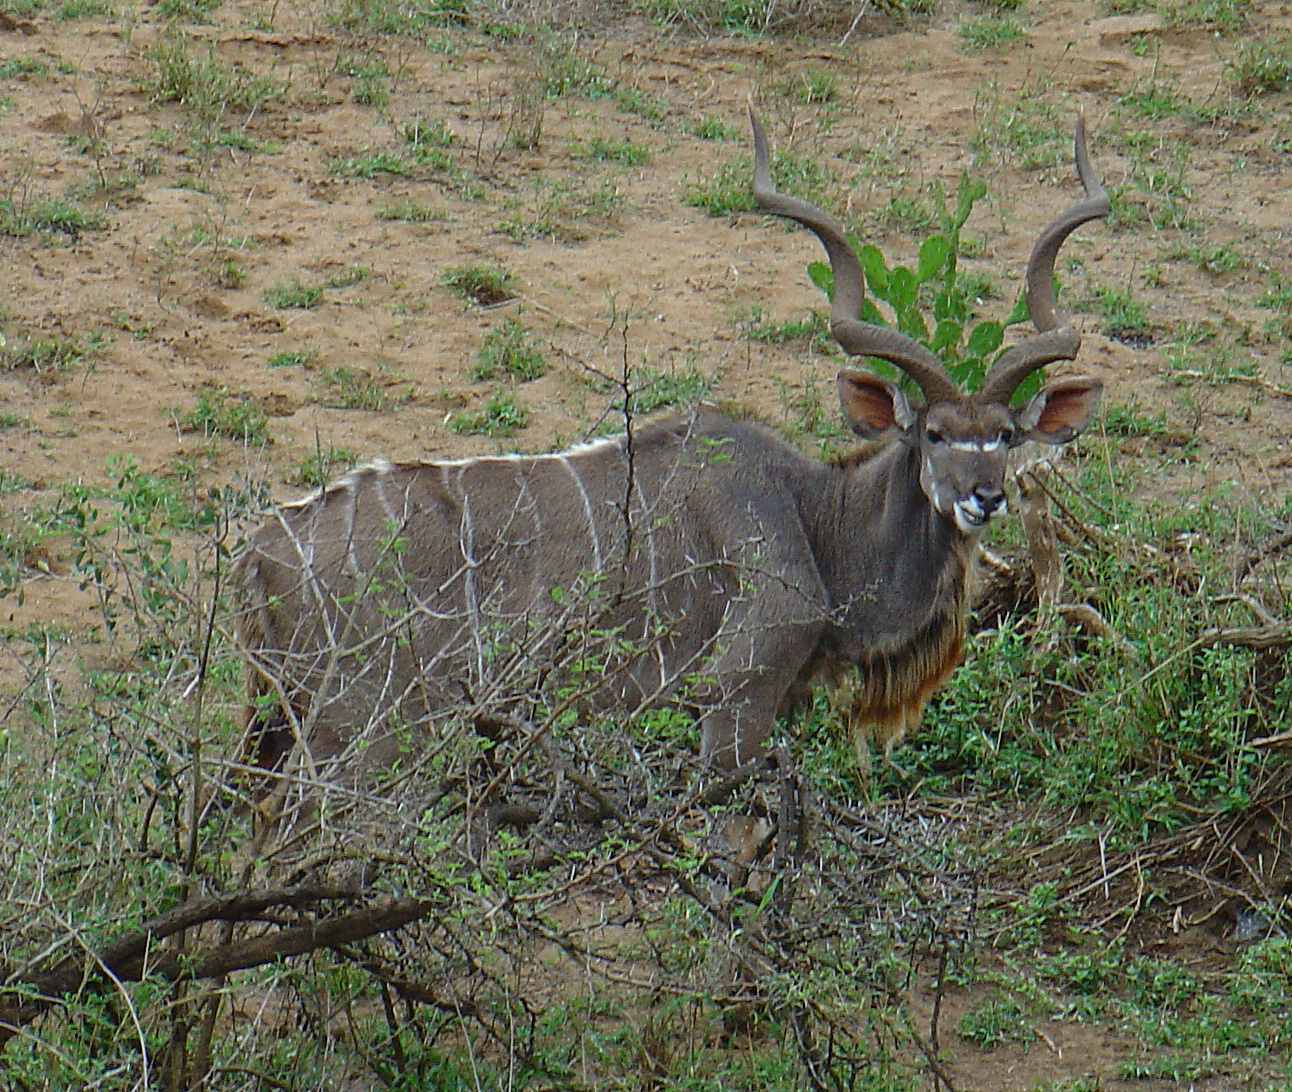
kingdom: Animalia
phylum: Chordata
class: Mammalia
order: Artiodactyla
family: Bovidae
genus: Tragelaphus
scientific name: Tragelaphus strepsiceros
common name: Greater kudu
